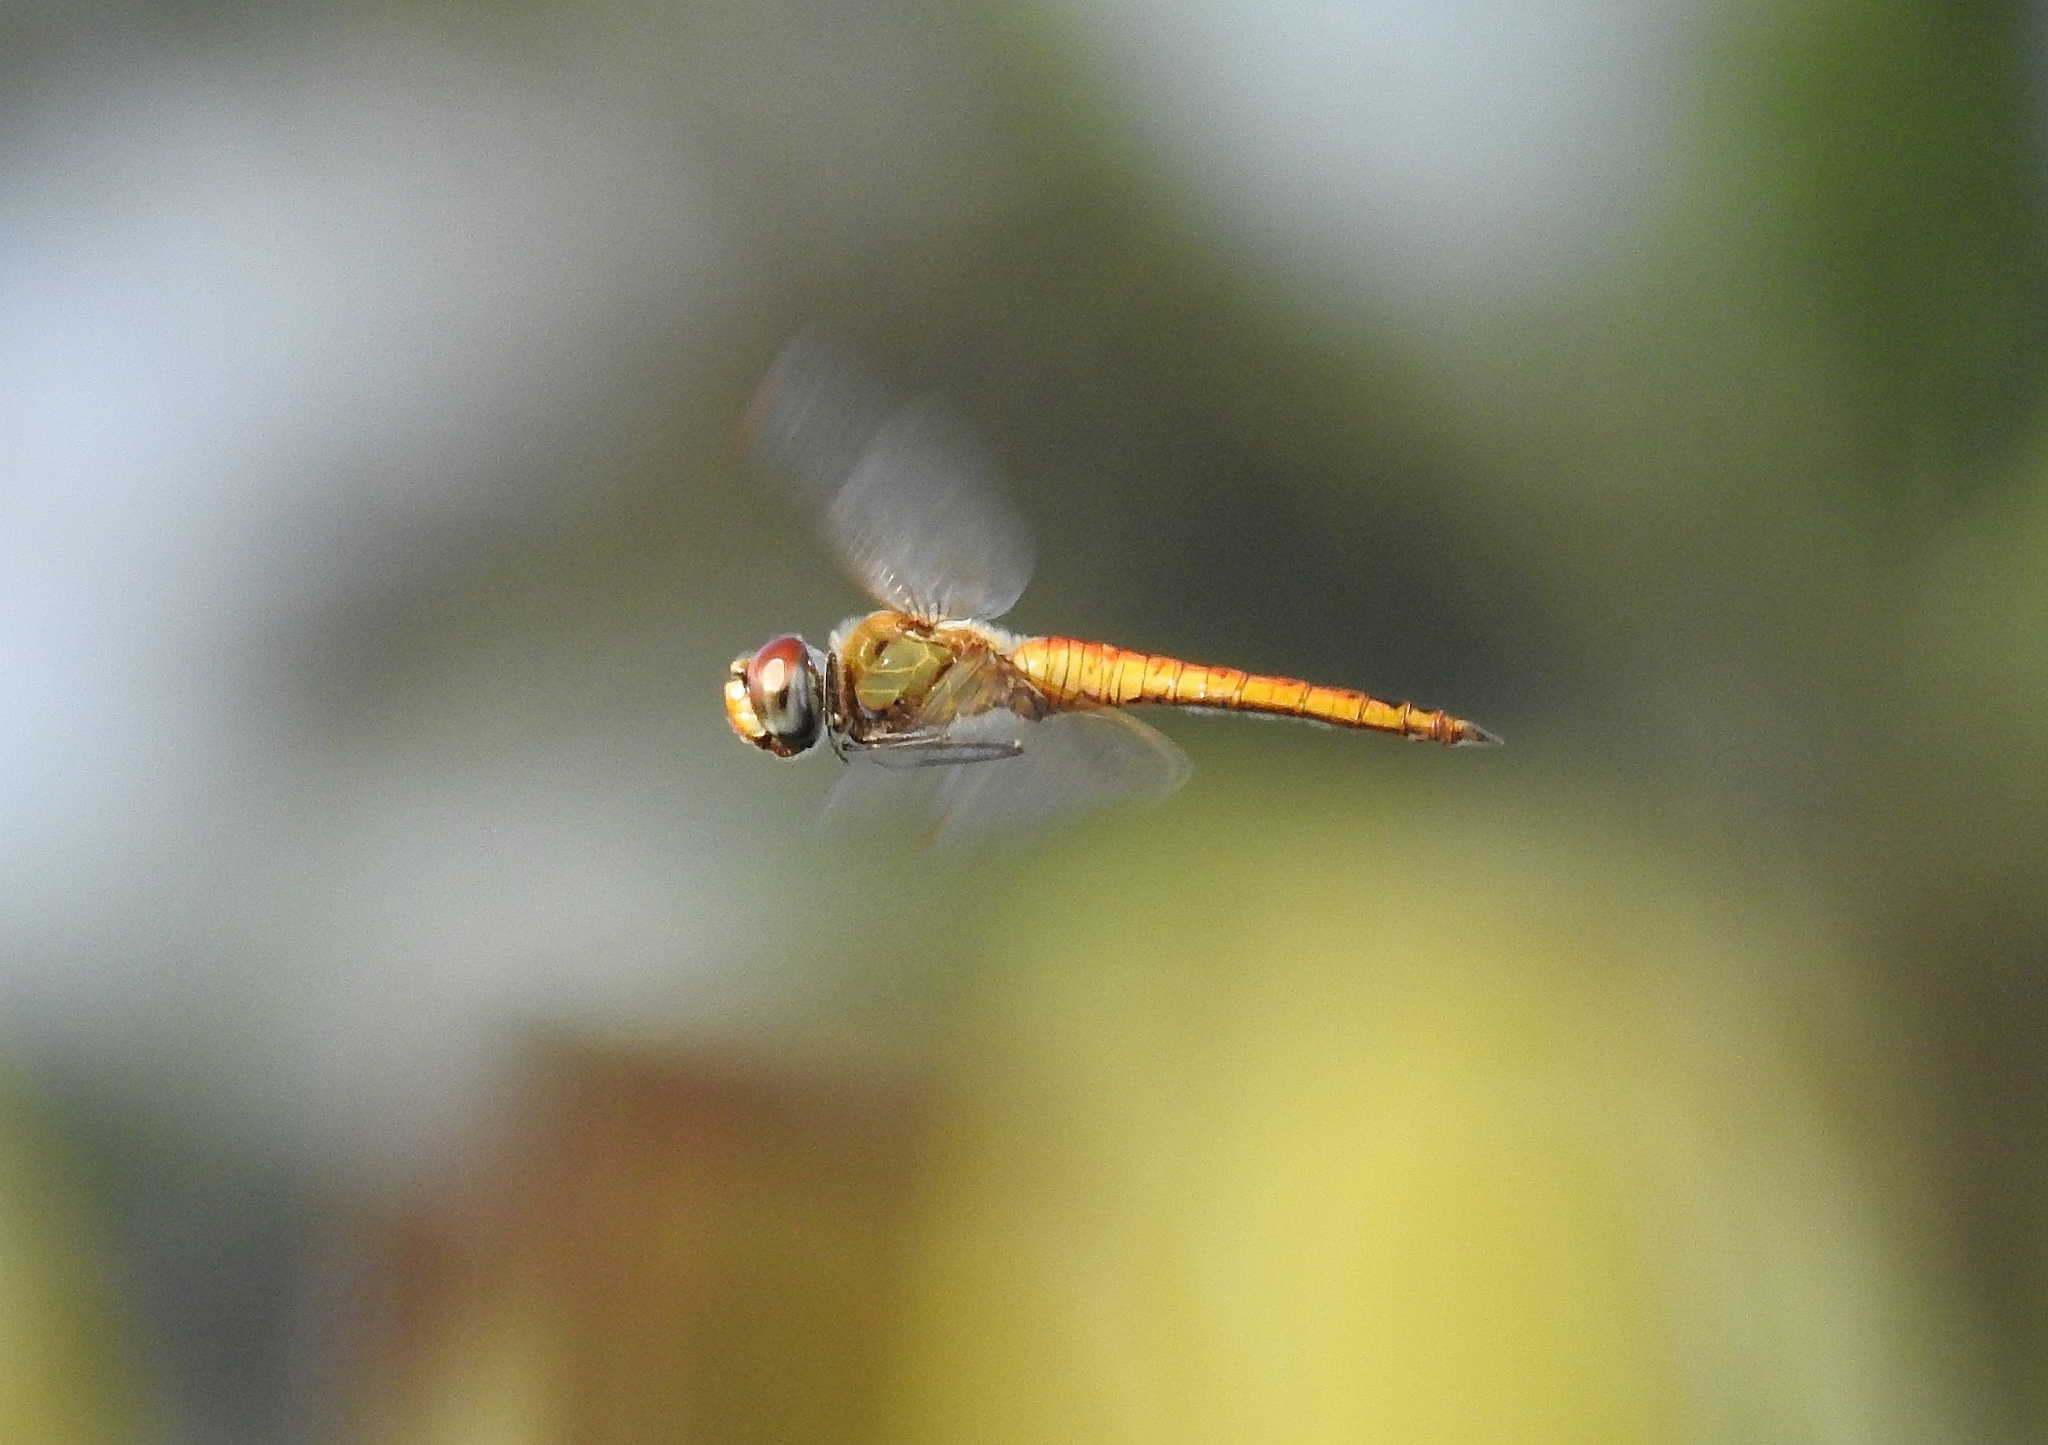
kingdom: Animalia
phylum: Arthropoda
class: Insecta
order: Odonata
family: Libellulidae
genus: Pantala
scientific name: Pantala flavescens
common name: Wandering glider
